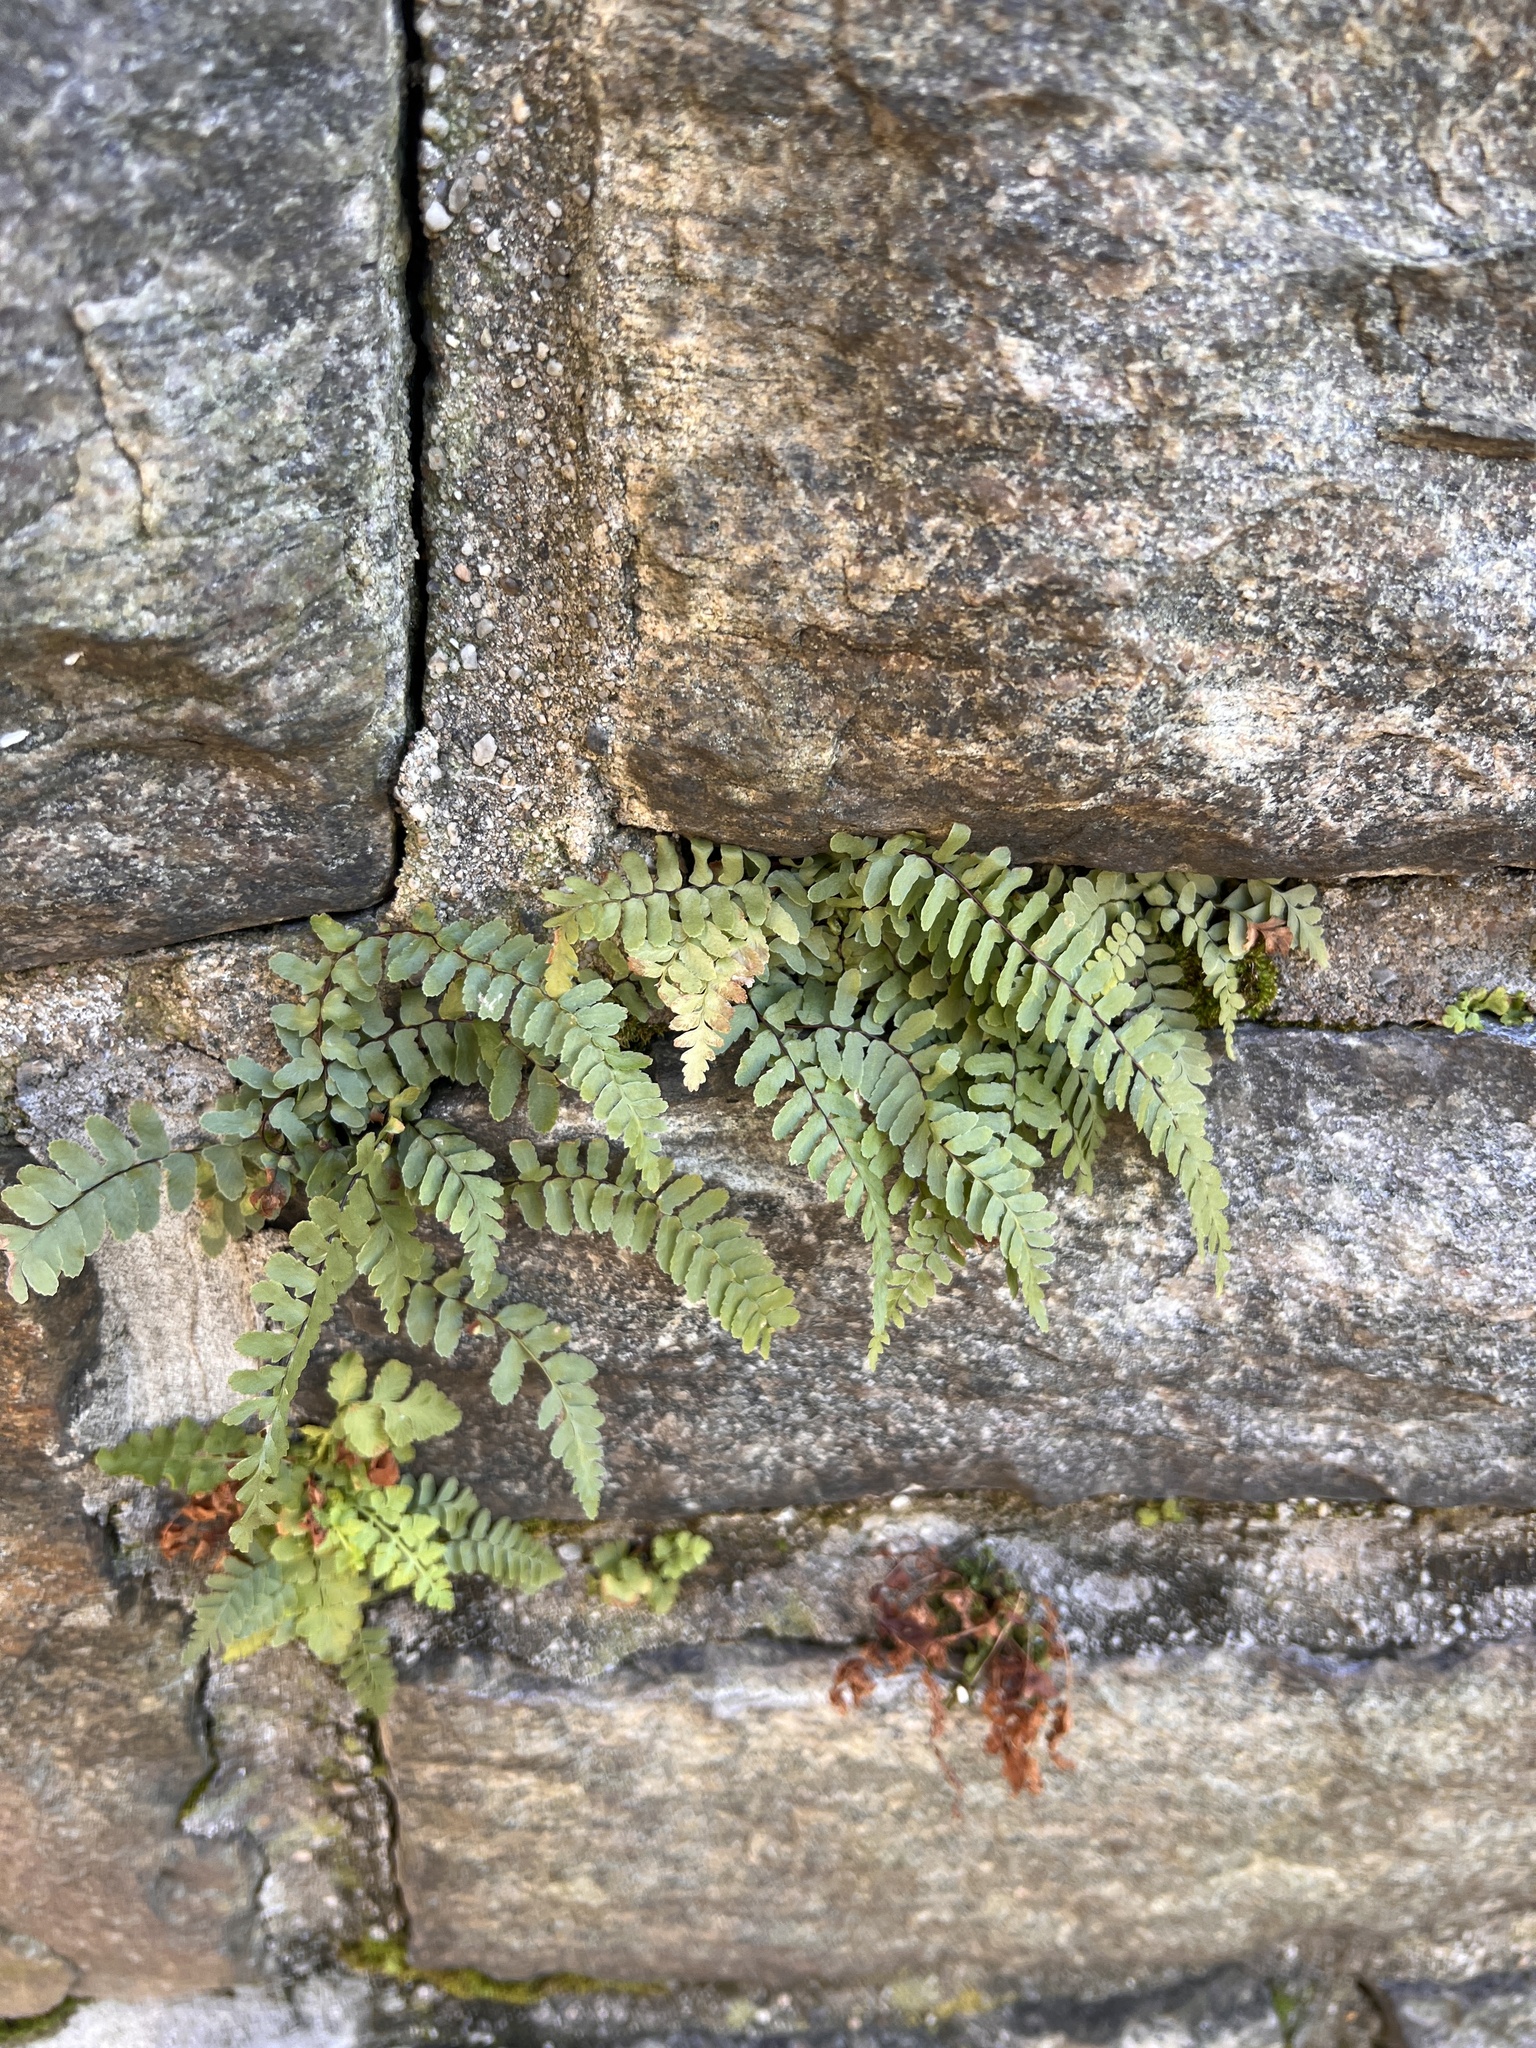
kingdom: Plantae
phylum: Tracheophyta
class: Polypodiopsida
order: Polypodiales
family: Aspleniaceae
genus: Asplenium
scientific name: Asplenium platyneuron
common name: Ebony spleenwort
